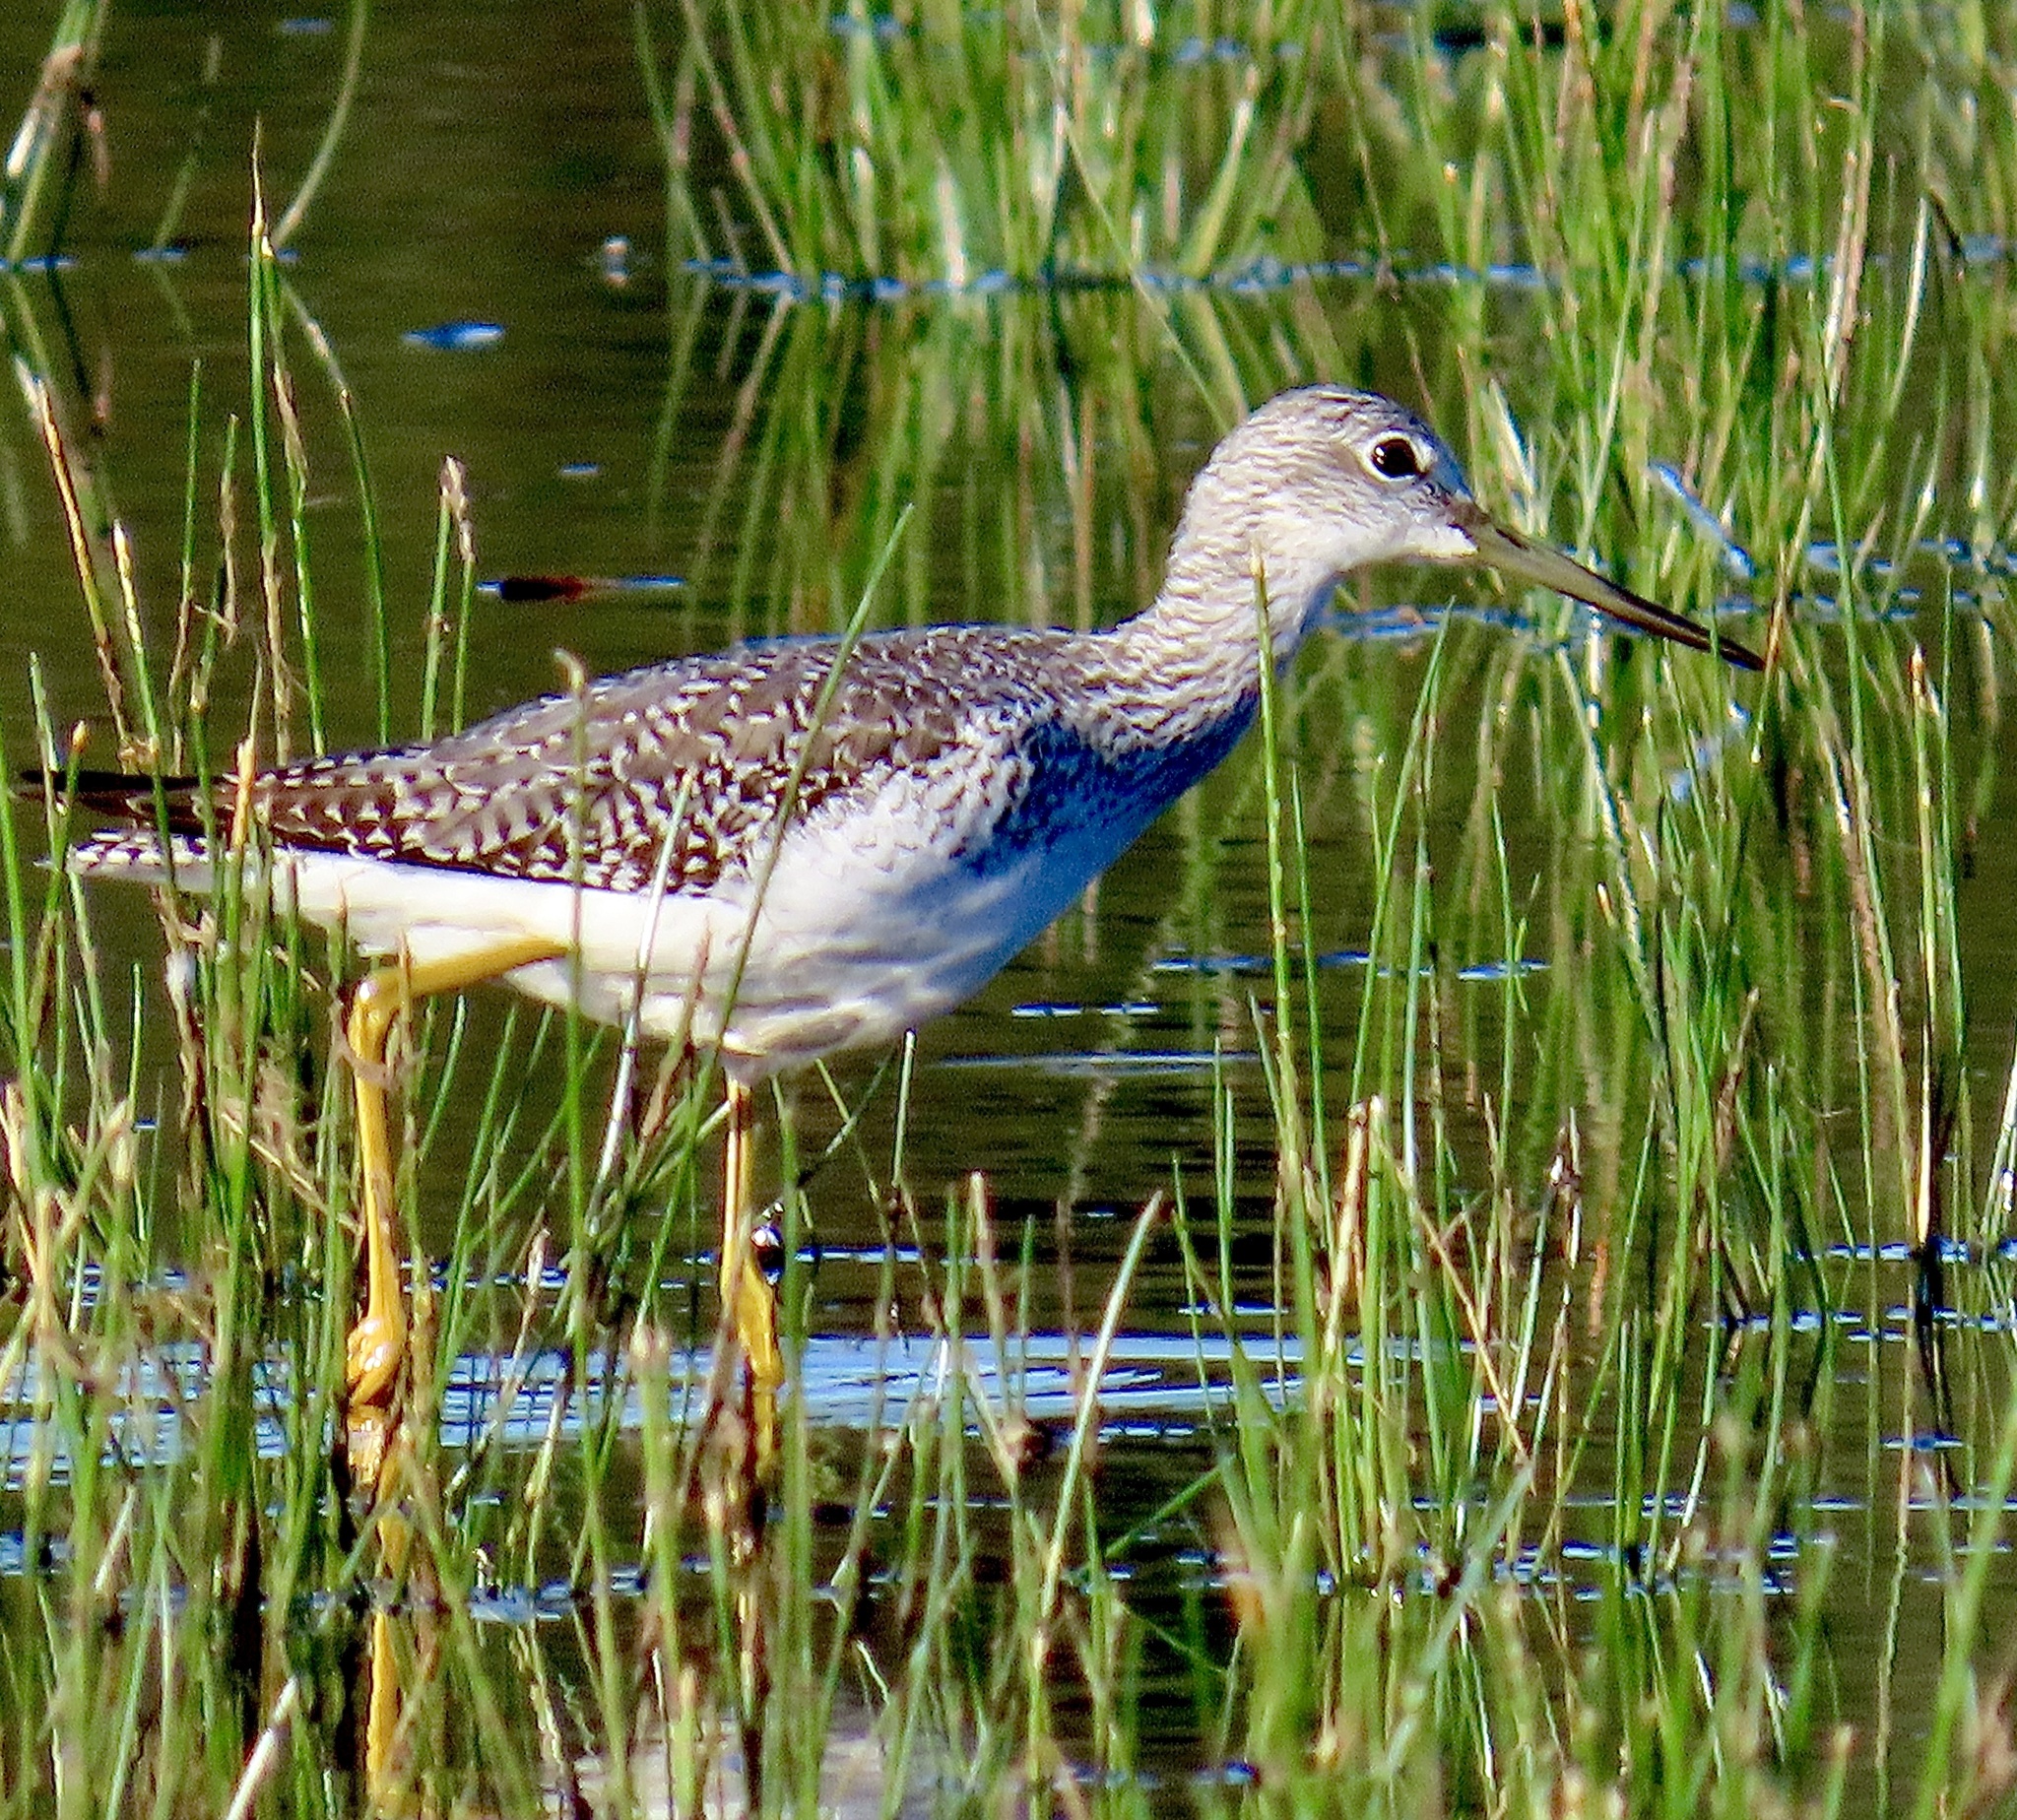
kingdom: Animalia
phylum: Chordata
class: Aves
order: Charadriiformes
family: Scolopacidae
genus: Tringa
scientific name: Tringa melanoleuca
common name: Greater yellowlegs
